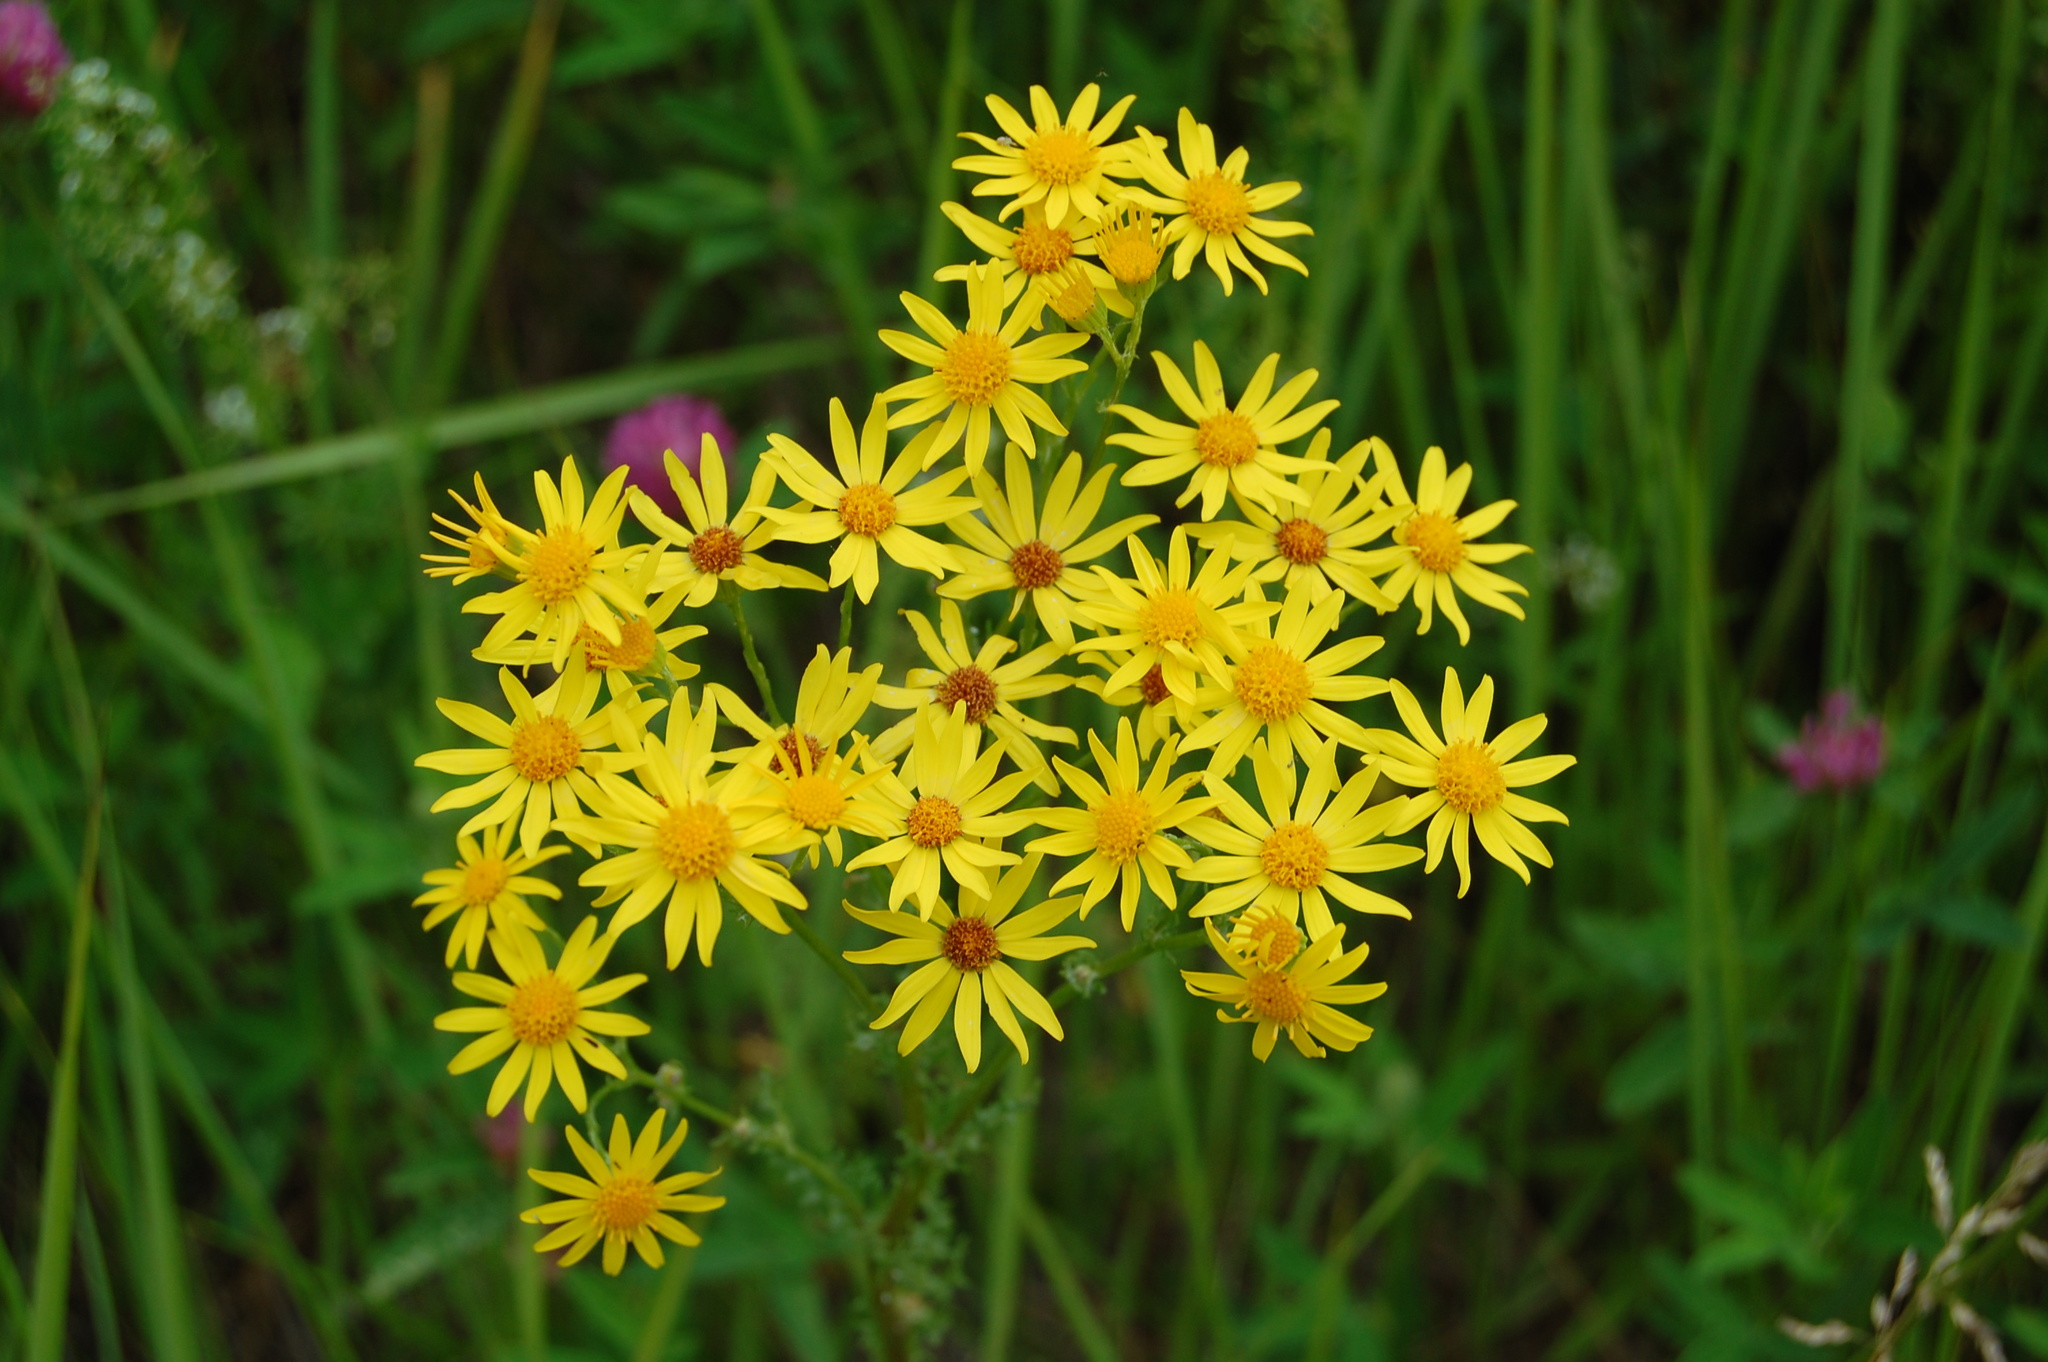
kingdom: Plantae
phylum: Tracheophyta
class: Magnoliopsida
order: Asterales
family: Asteraceae
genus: Jacobaea
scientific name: Jacobaea vulgaris
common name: Stinking willie
